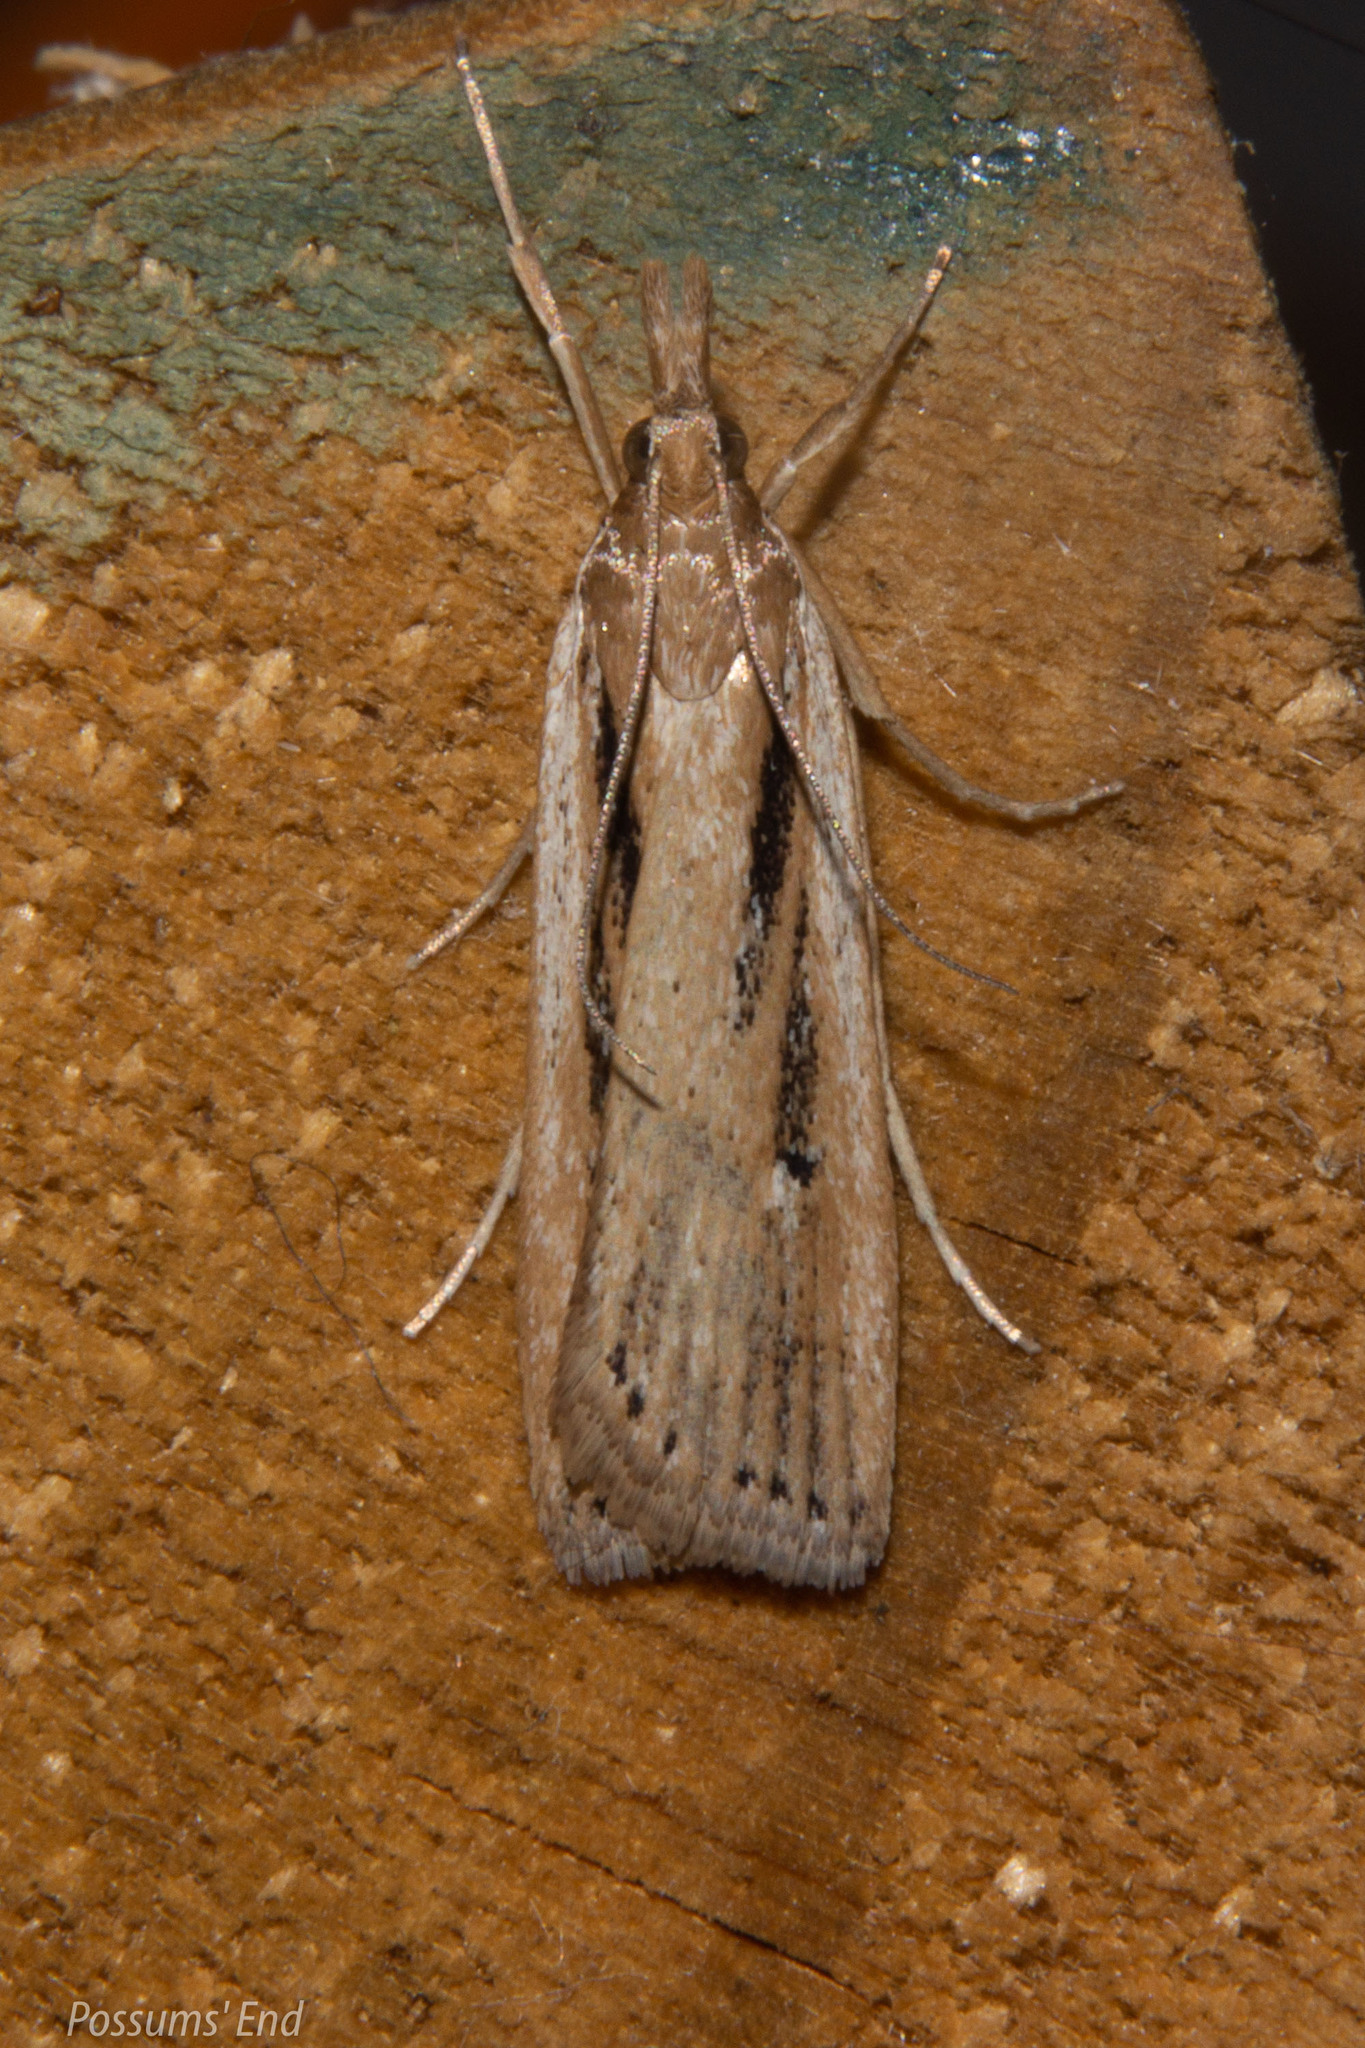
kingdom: Animalia
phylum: Arthropoda
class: Insecta
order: Lepidoptera
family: Crambidae
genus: Eudonia
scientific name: Eudonia sabulosella
